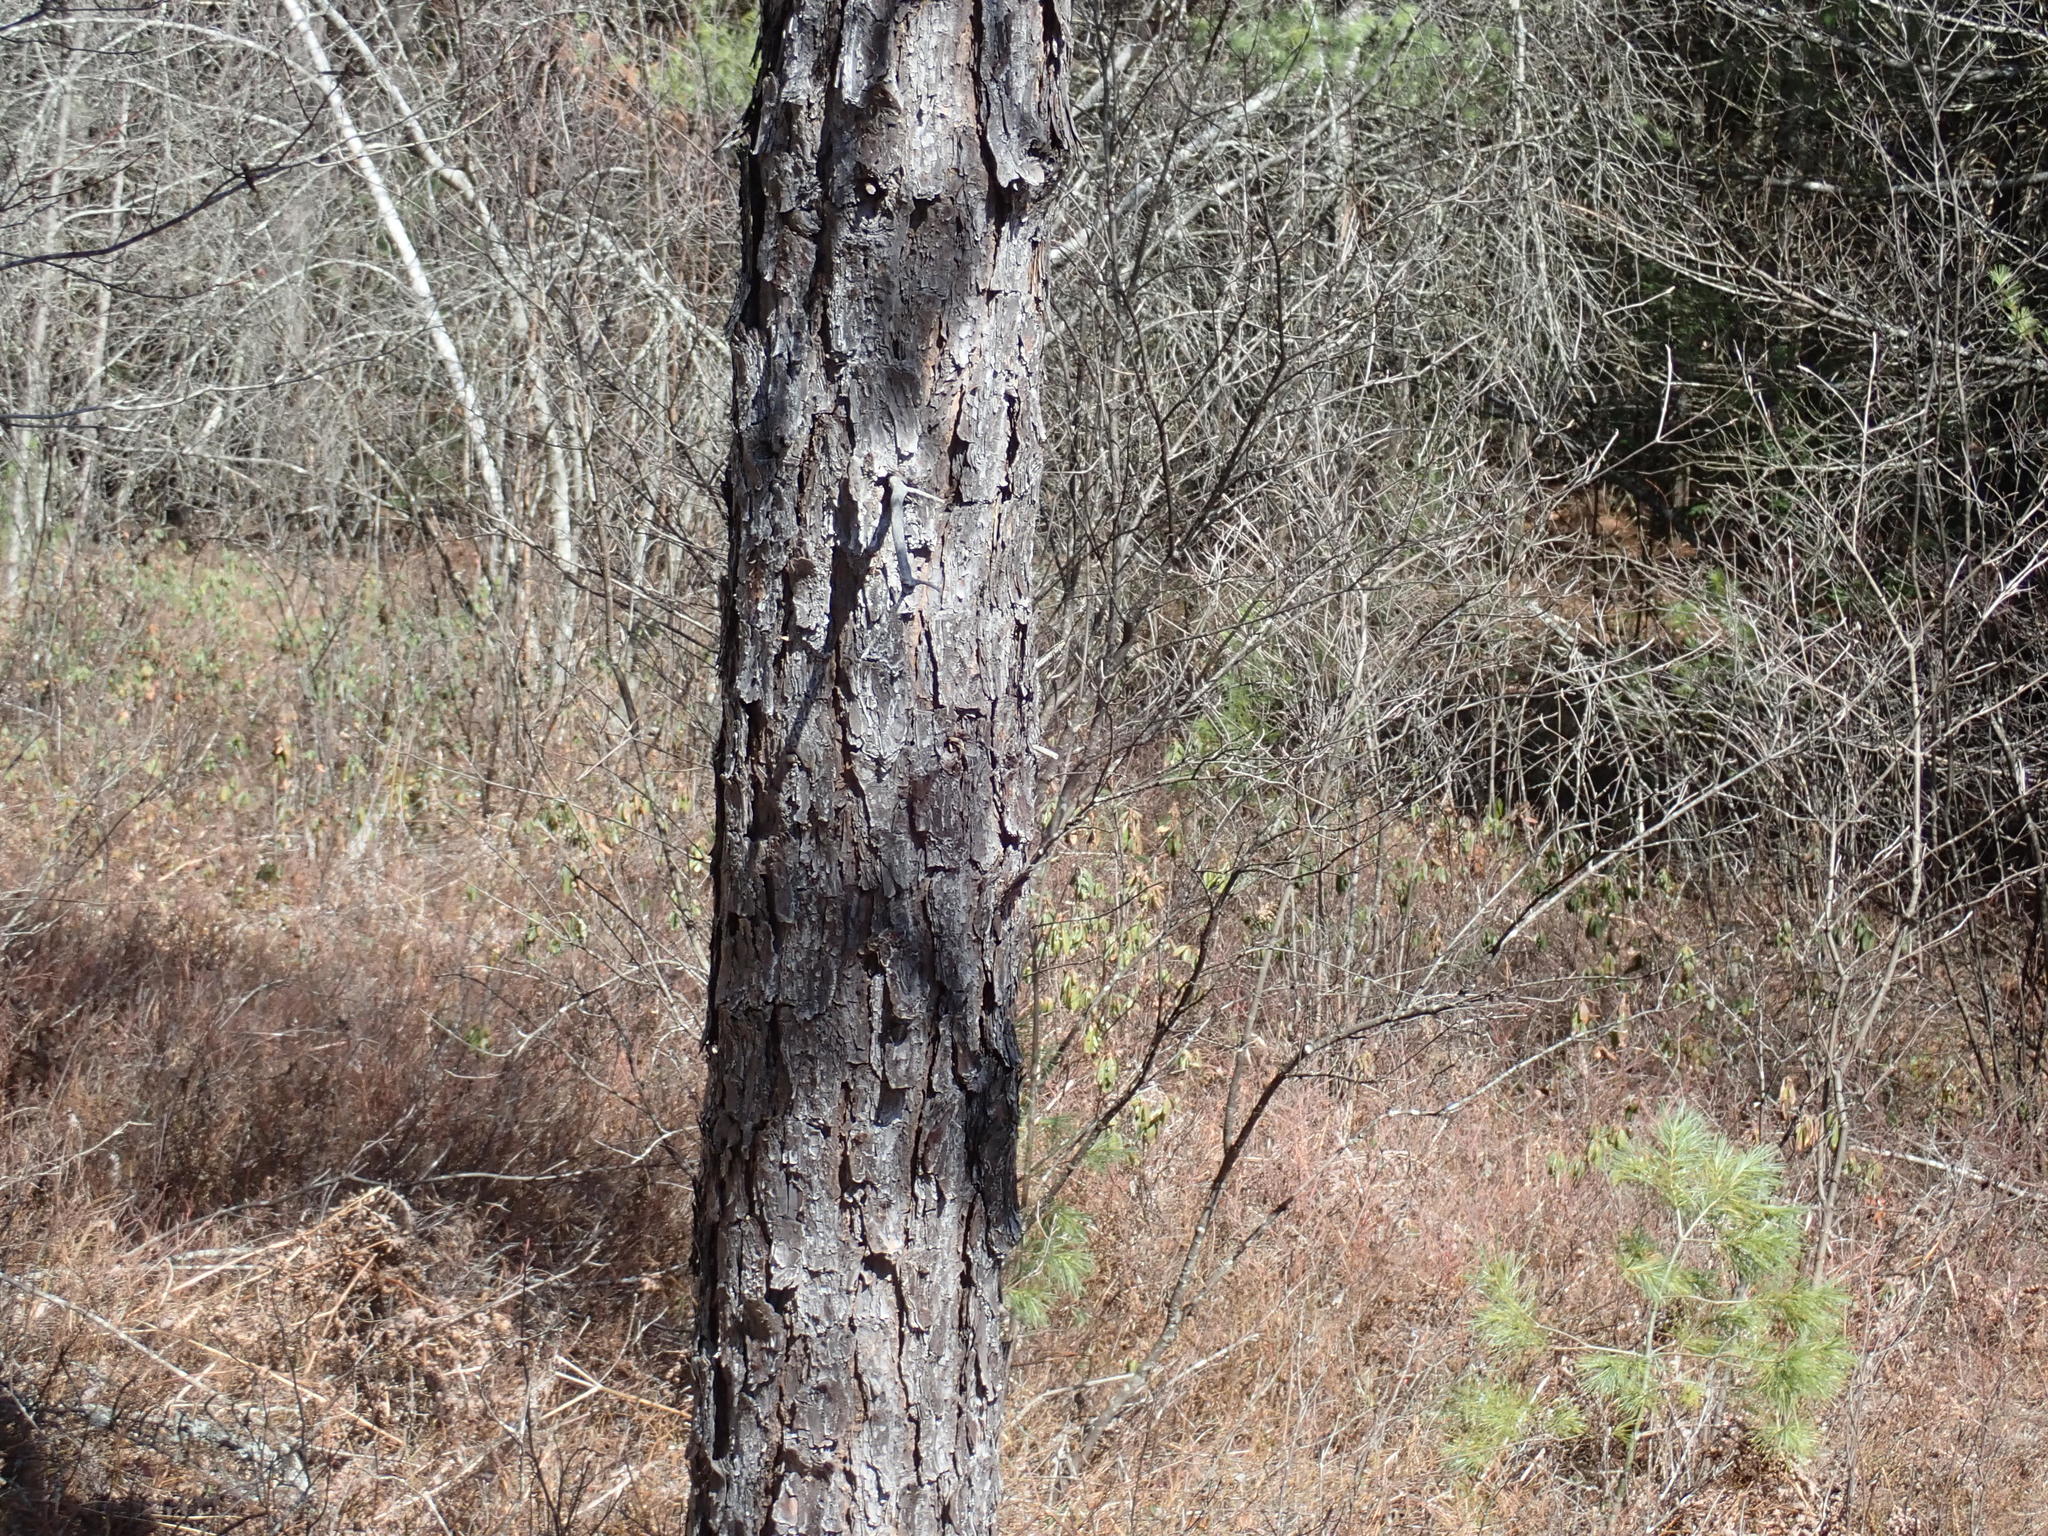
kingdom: Plantae
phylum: Tracheophyta
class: Pinopsida
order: Pinales
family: Pinaceae
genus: Pinus
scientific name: Pinus rigida
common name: Pitch pine
